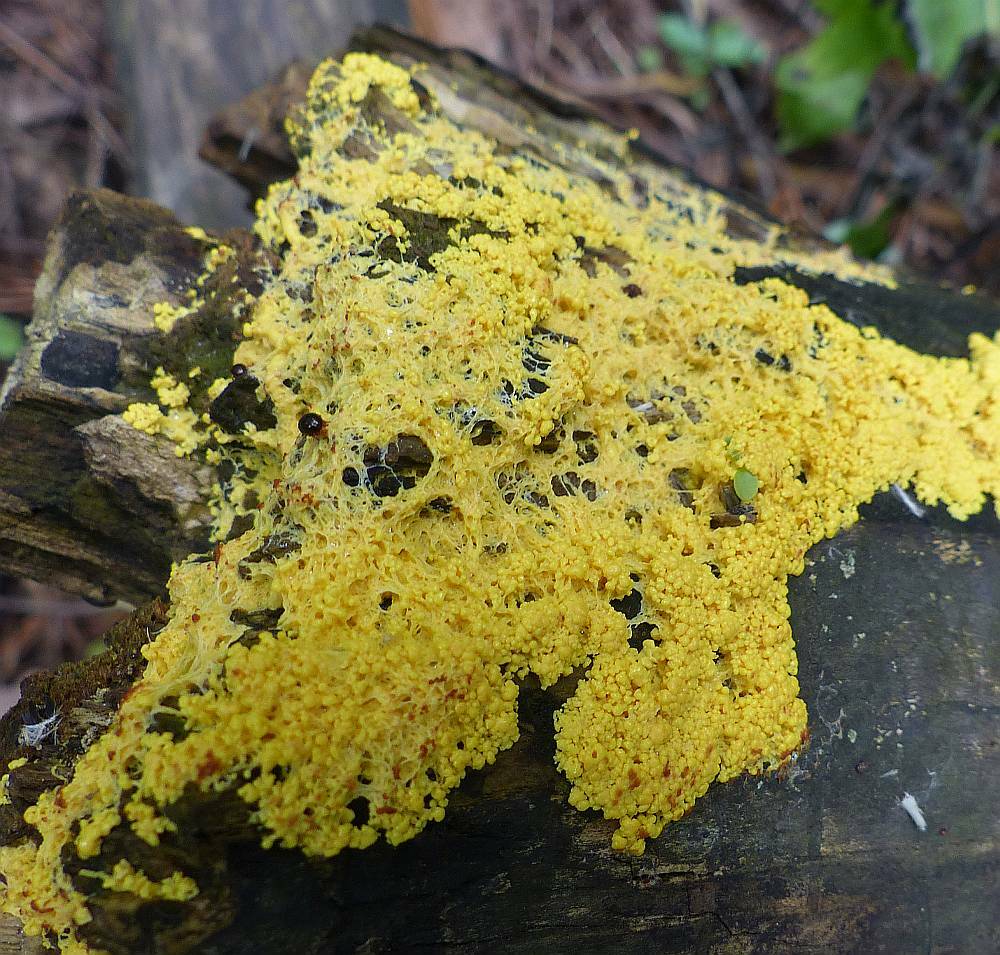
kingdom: Protozoa
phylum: Mycetozoa
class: Myxomycetes
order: Physarales
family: Physaraceae
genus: Fuligo
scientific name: Fuligo septica
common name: Dog vomit slime mold
